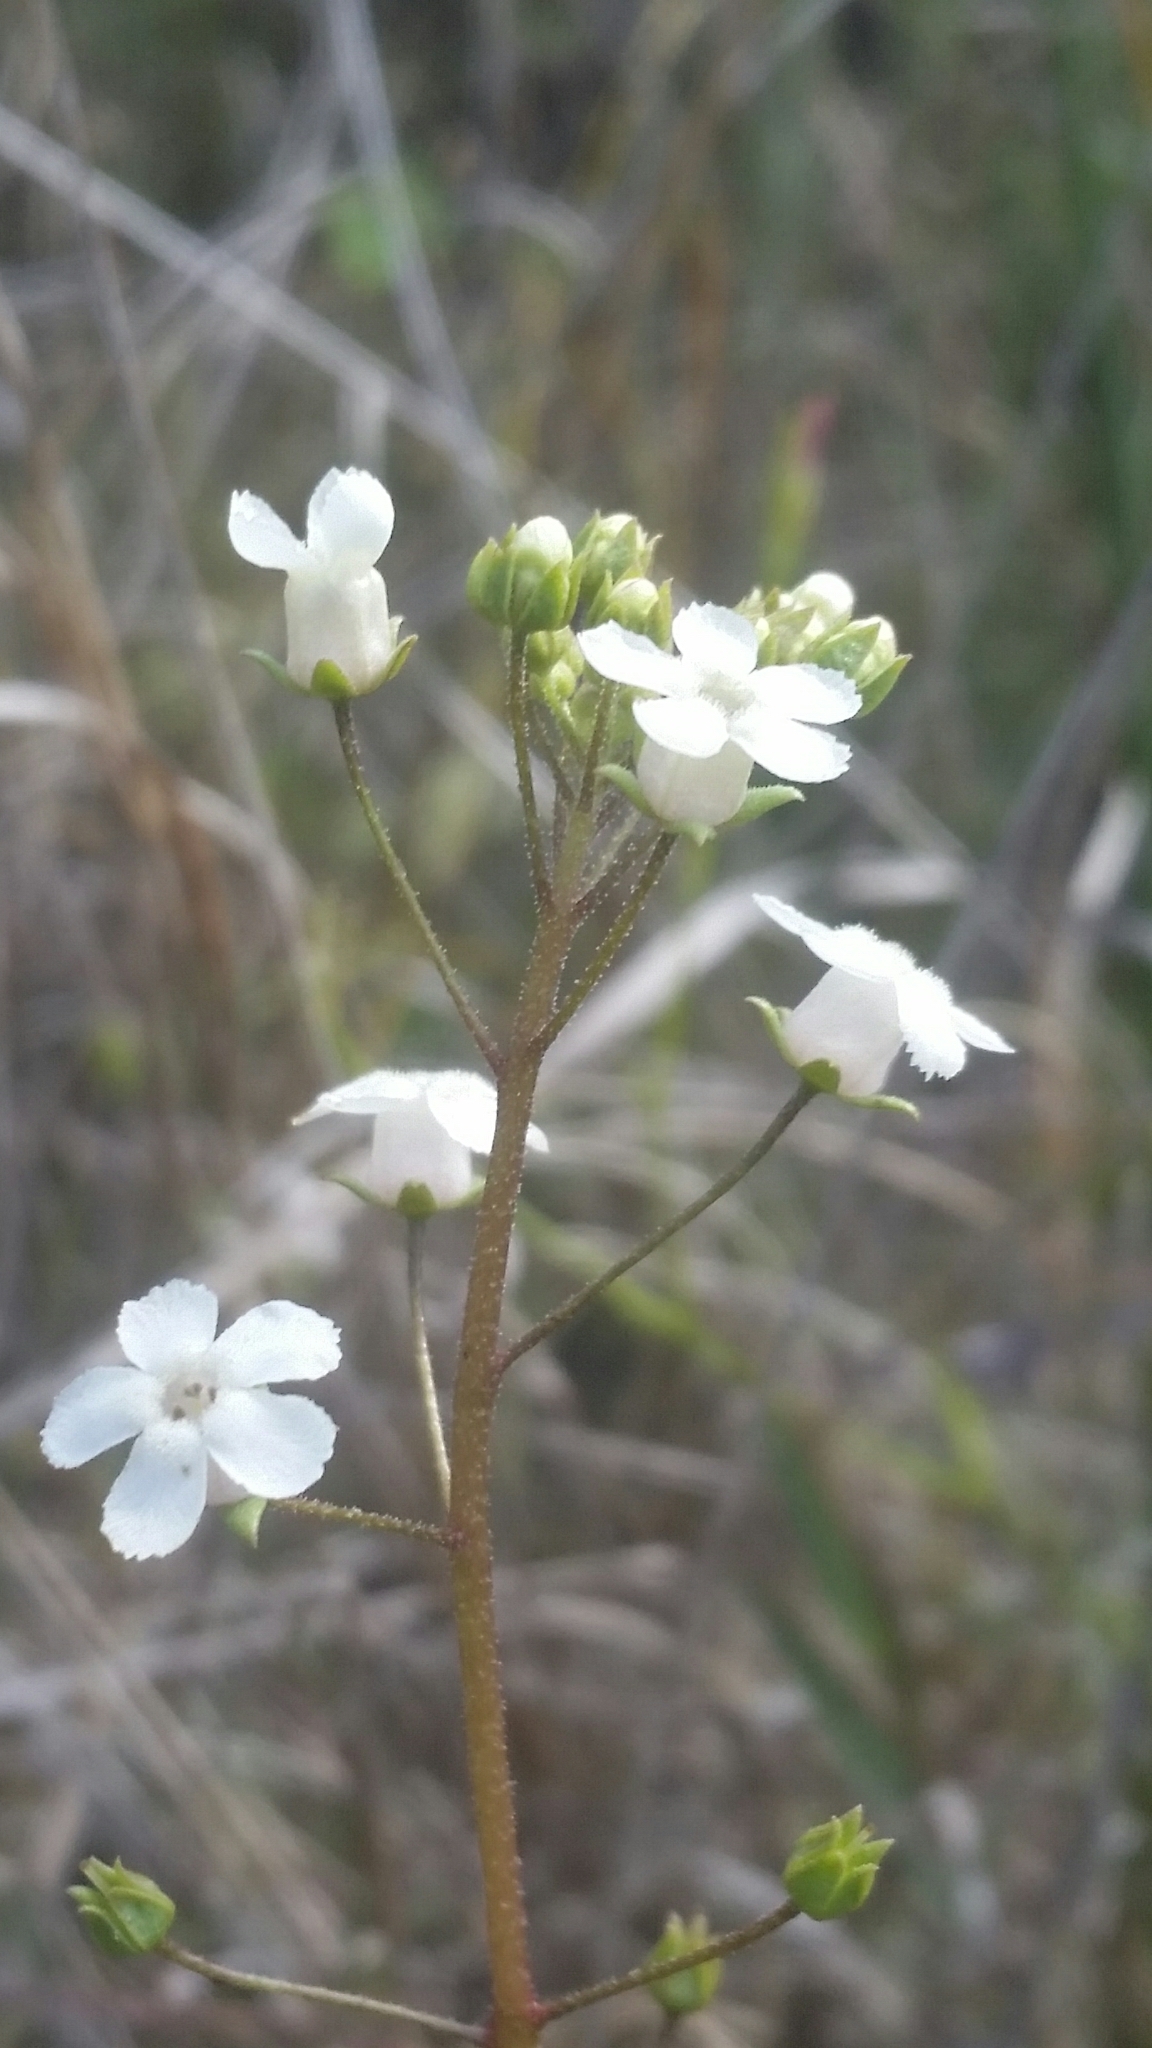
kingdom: Plantae
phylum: Tracheophyta
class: Magnoliopsida
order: Ericales
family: Primulaceae
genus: Samolus
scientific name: Samolus ebracteatus
